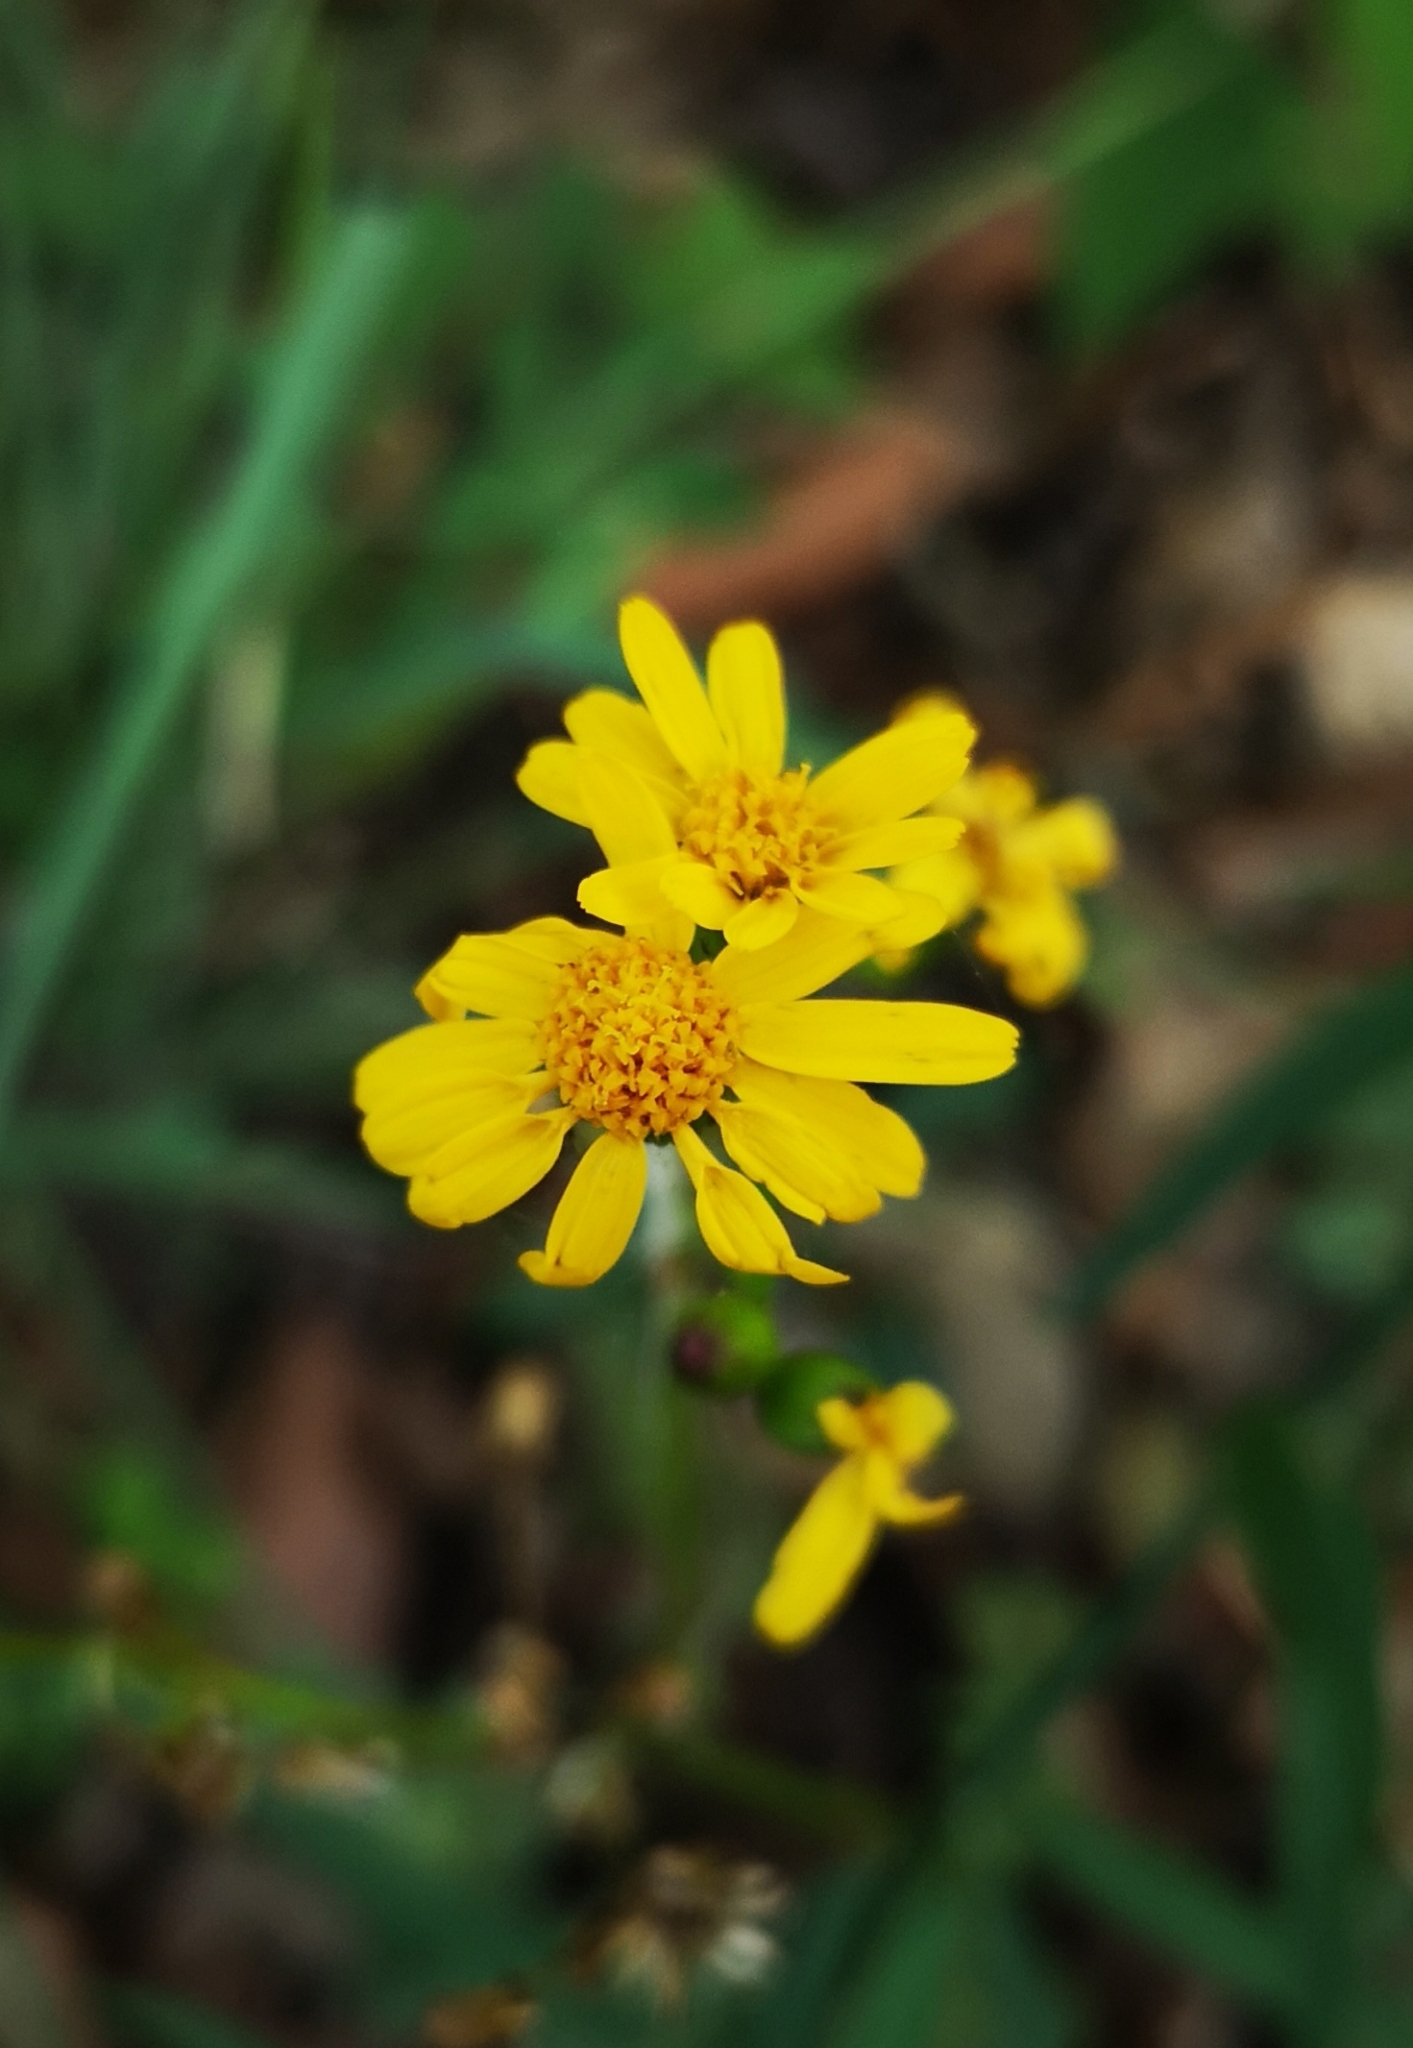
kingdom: Plantae
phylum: Tracheophyta
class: Magnoliopsida
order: Asterales
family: Asteraceae
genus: Packera
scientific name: Packera coahuilensis
